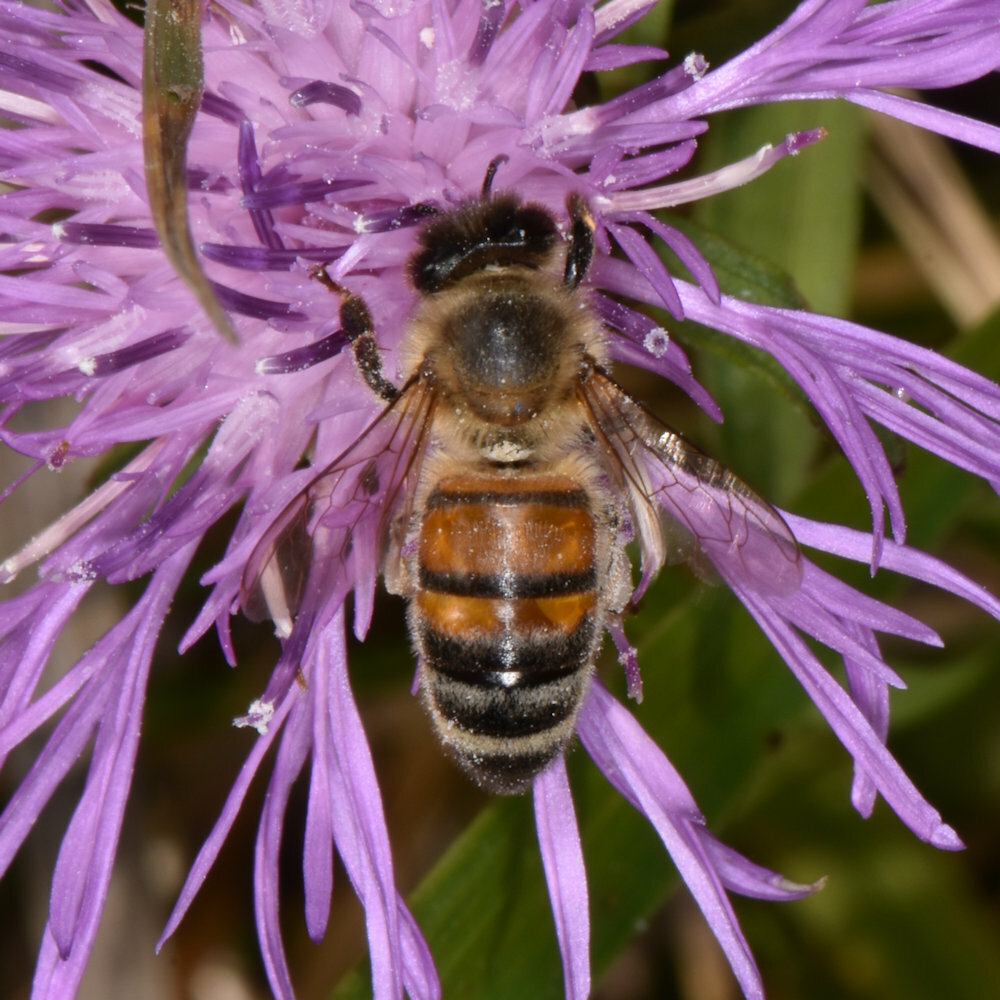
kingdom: Animalia
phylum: Arthropoda
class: Insecta
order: Hymenoptera
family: Apidae
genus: Apis
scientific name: Apis mellifera
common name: Honey bee
